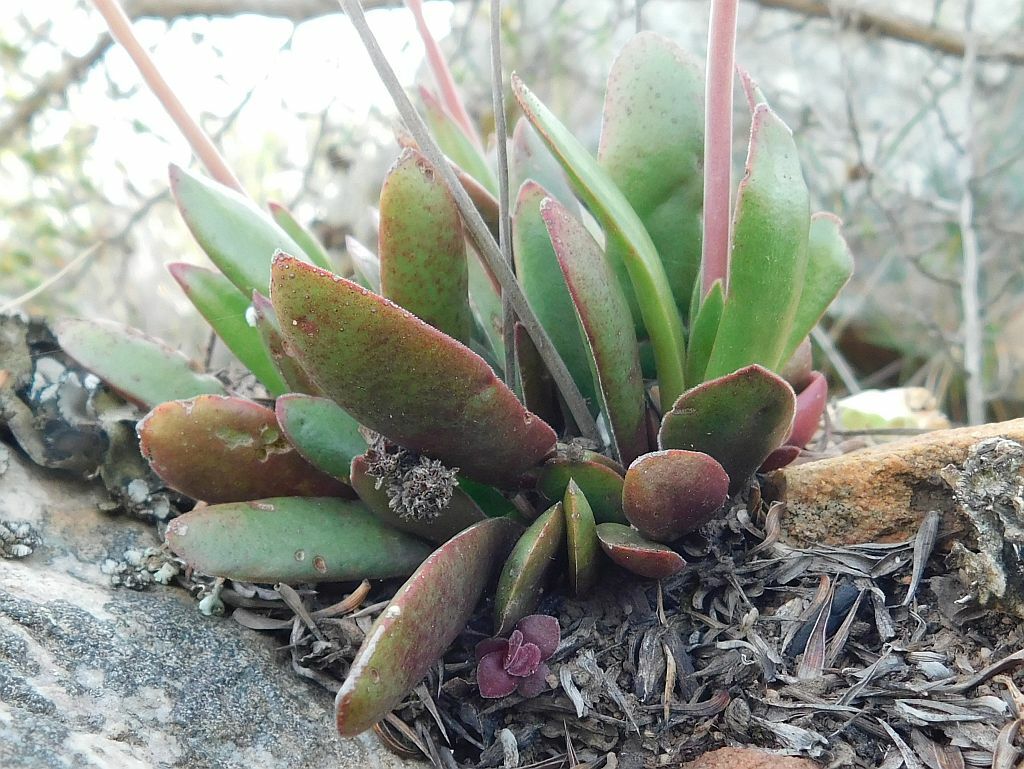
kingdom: Plantae
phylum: Tracheophyta
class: Magnoliopsida
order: Saxifragales
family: Crassulaceae
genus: Crassula
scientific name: Crassula nudicaulis
